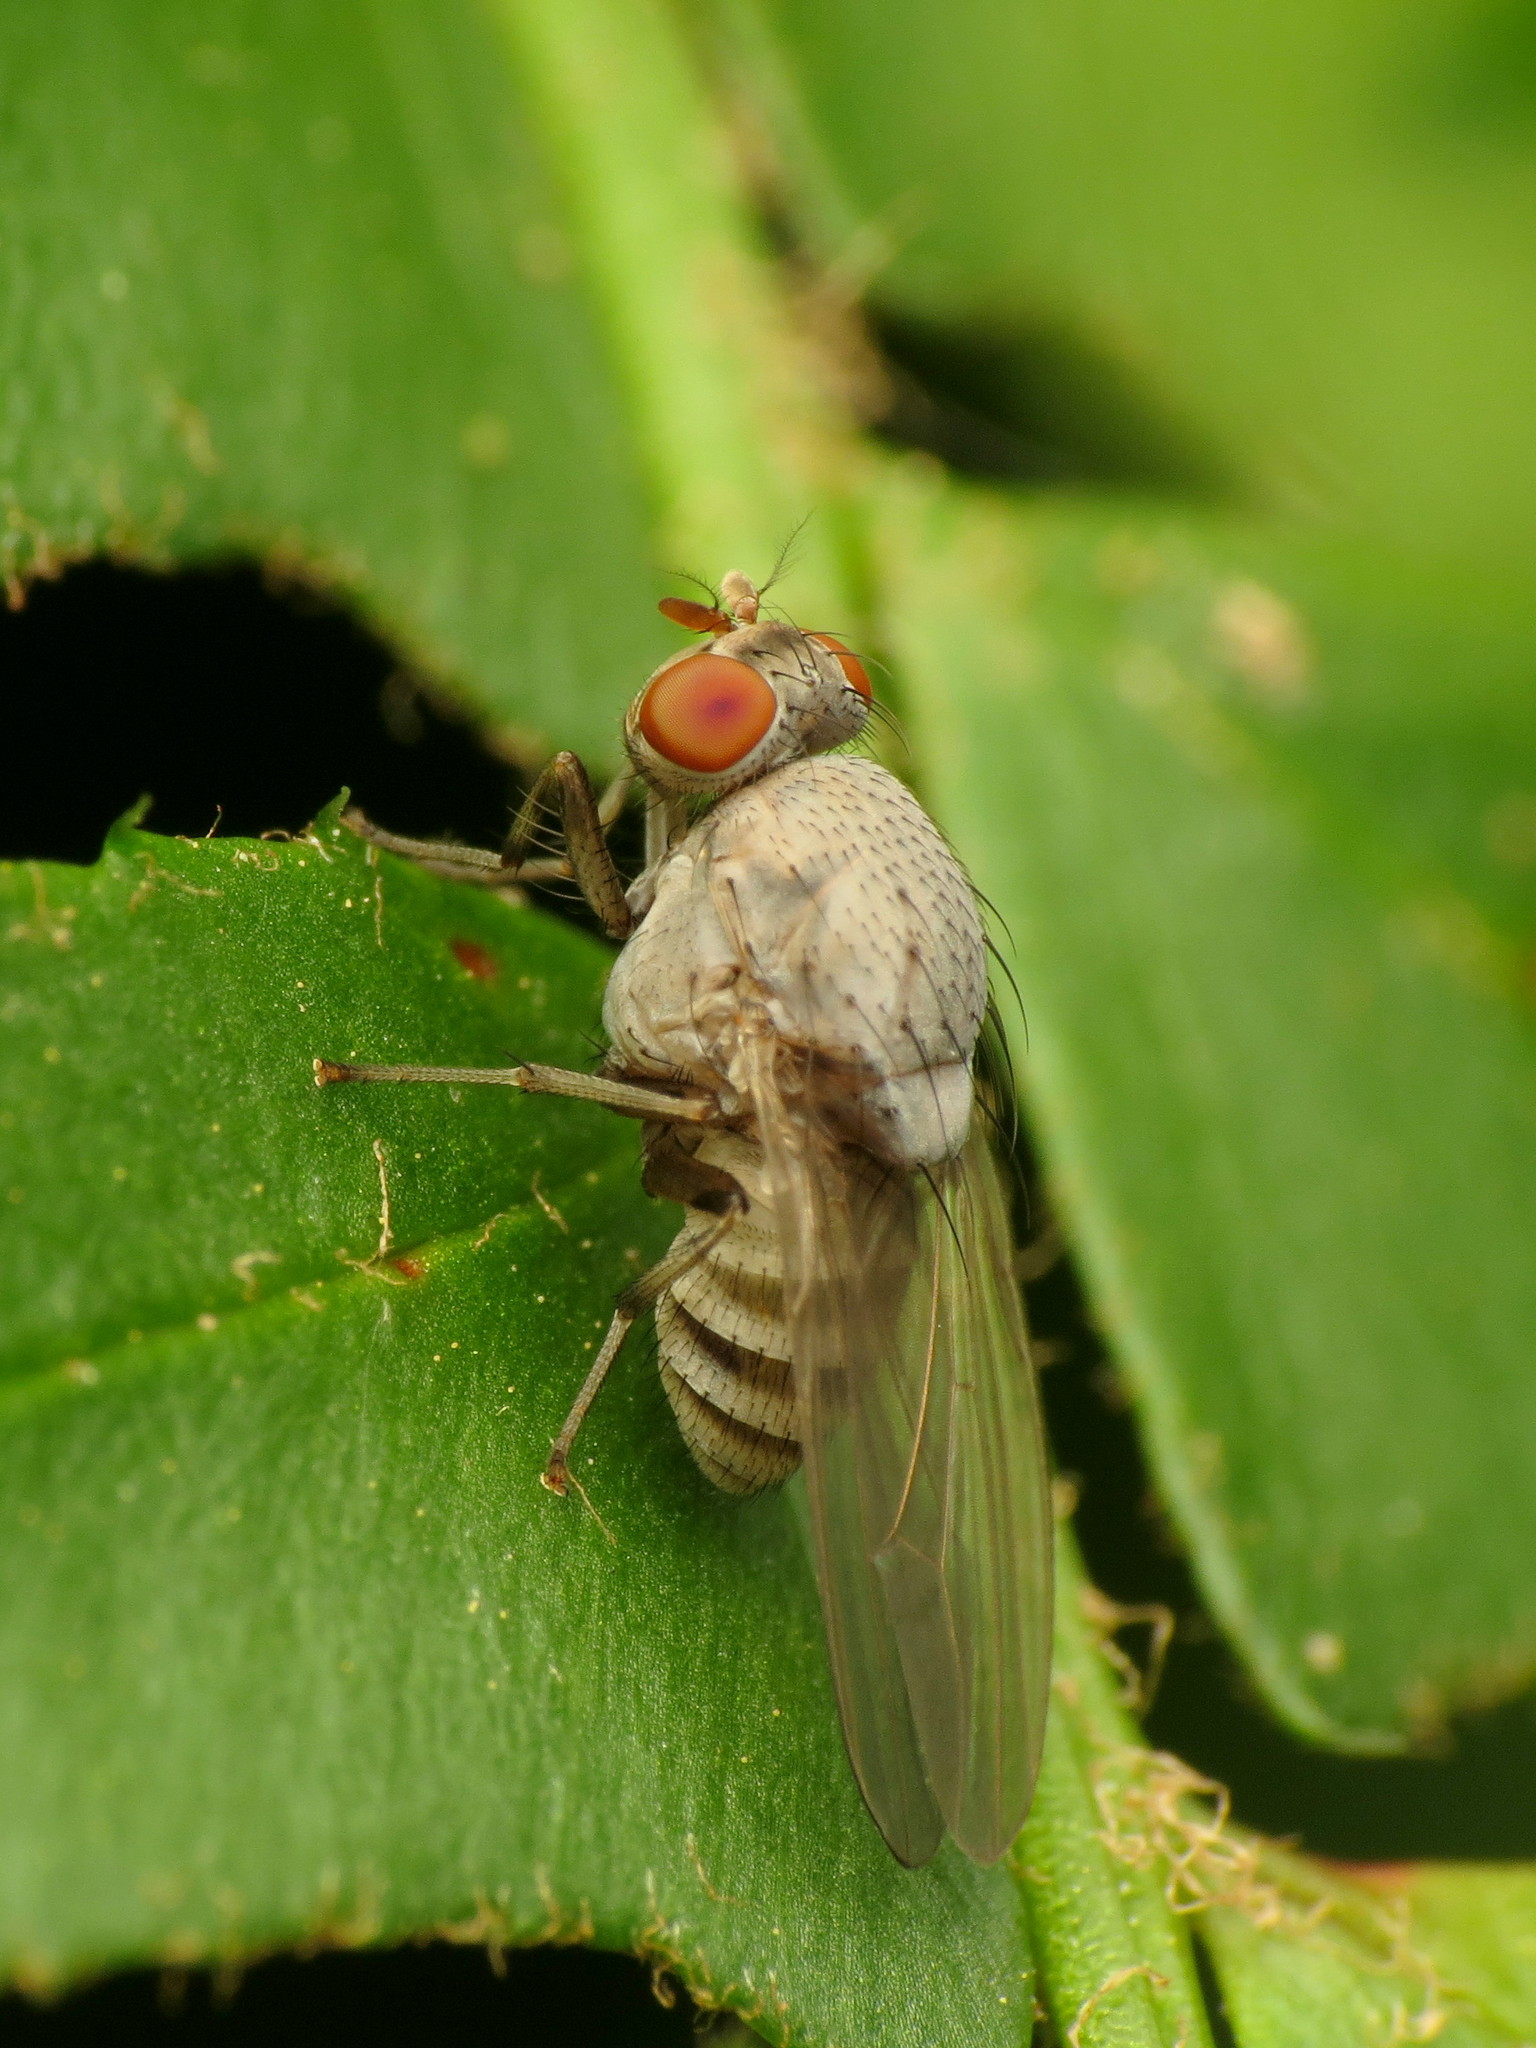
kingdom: Animalia
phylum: Arthropoda
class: Insecta
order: Diptera
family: Lauxaniidae
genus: Minettia
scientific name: Minettia magna
